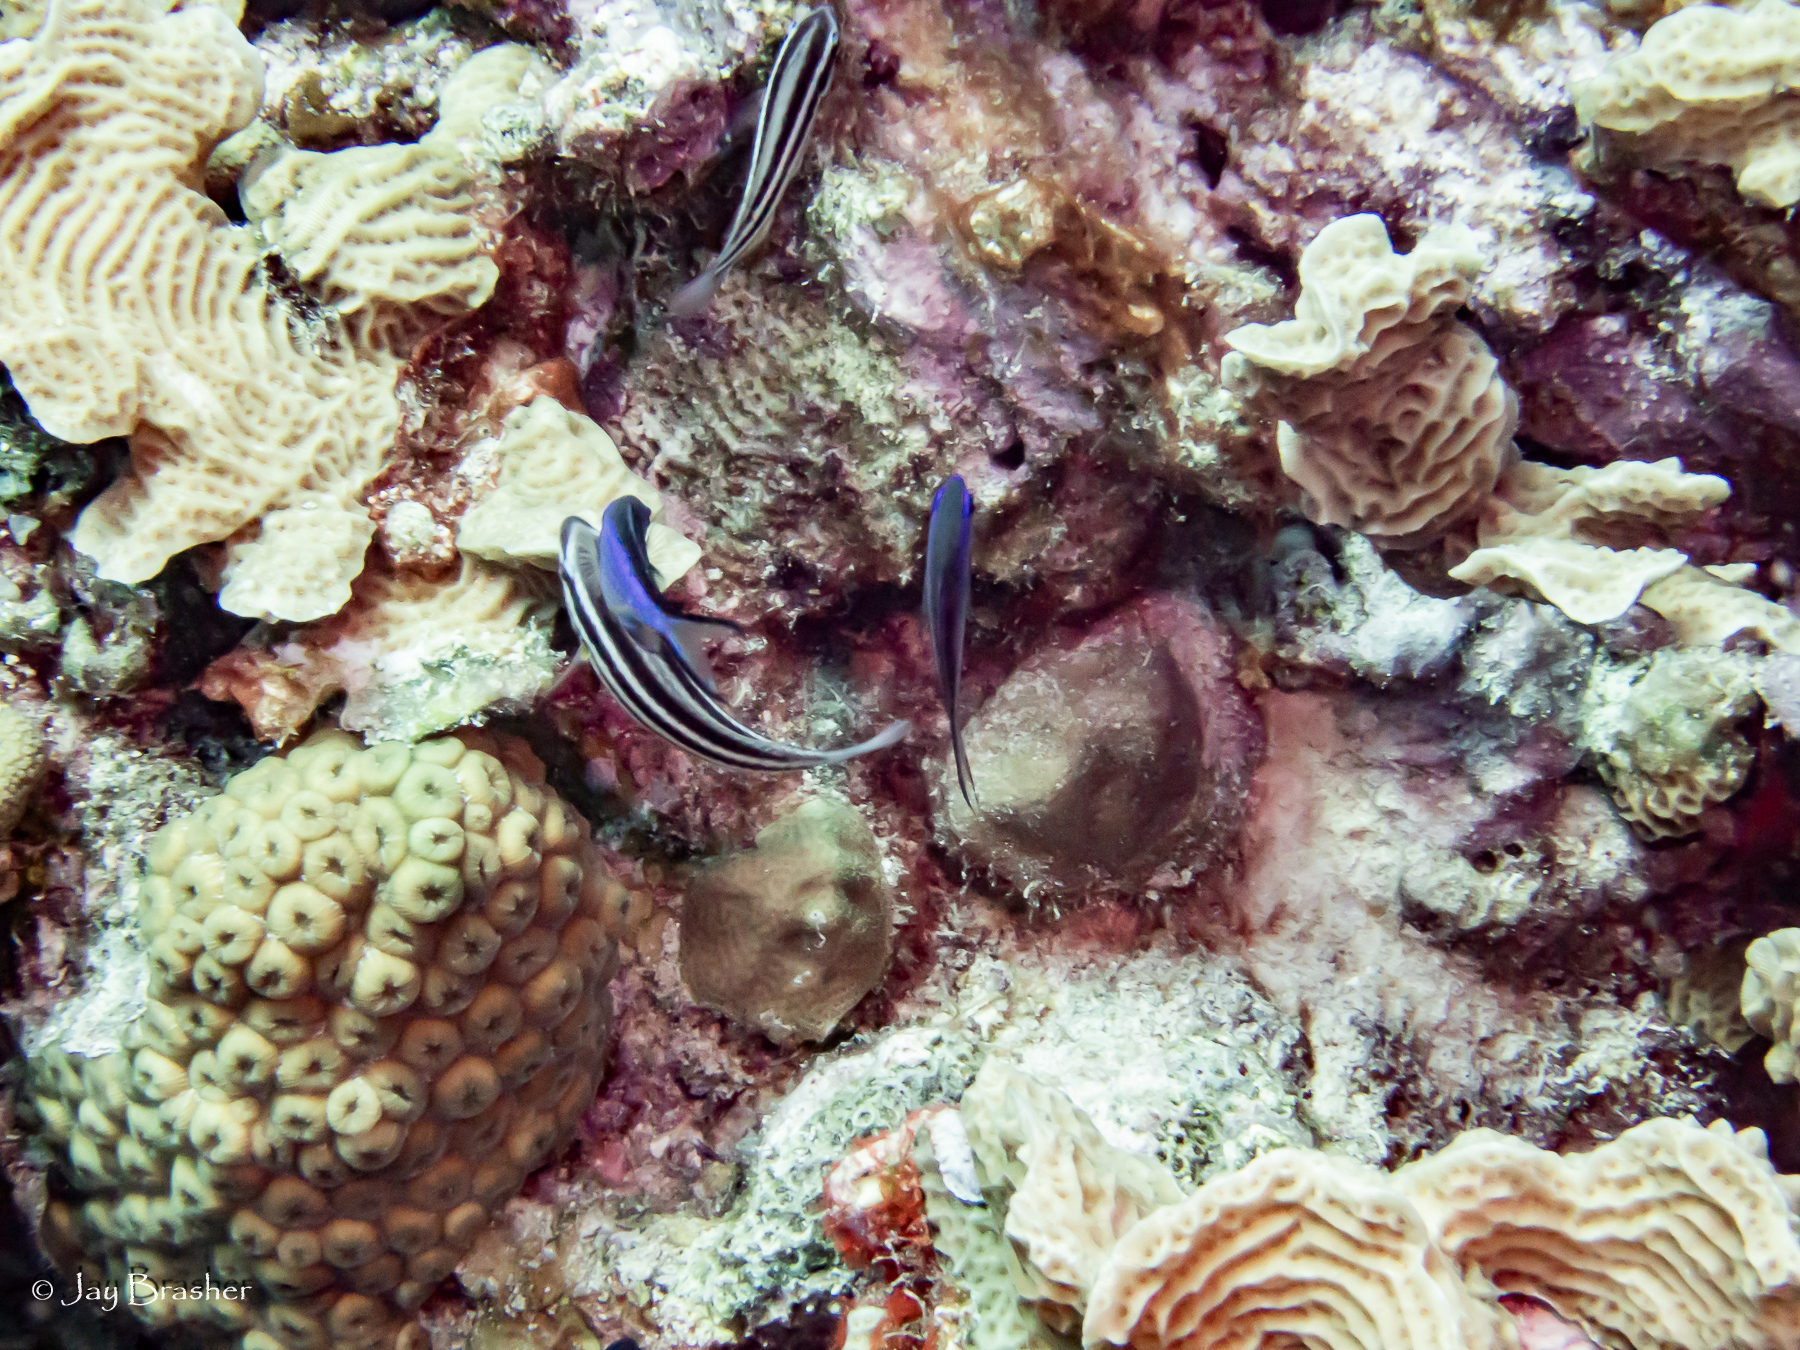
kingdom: Animalia
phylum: Cnidaria
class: Anthozoa
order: Scleractinia
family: Montastraeidae
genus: Montastraea
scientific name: Montastraea cavernosa
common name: Great star coral
